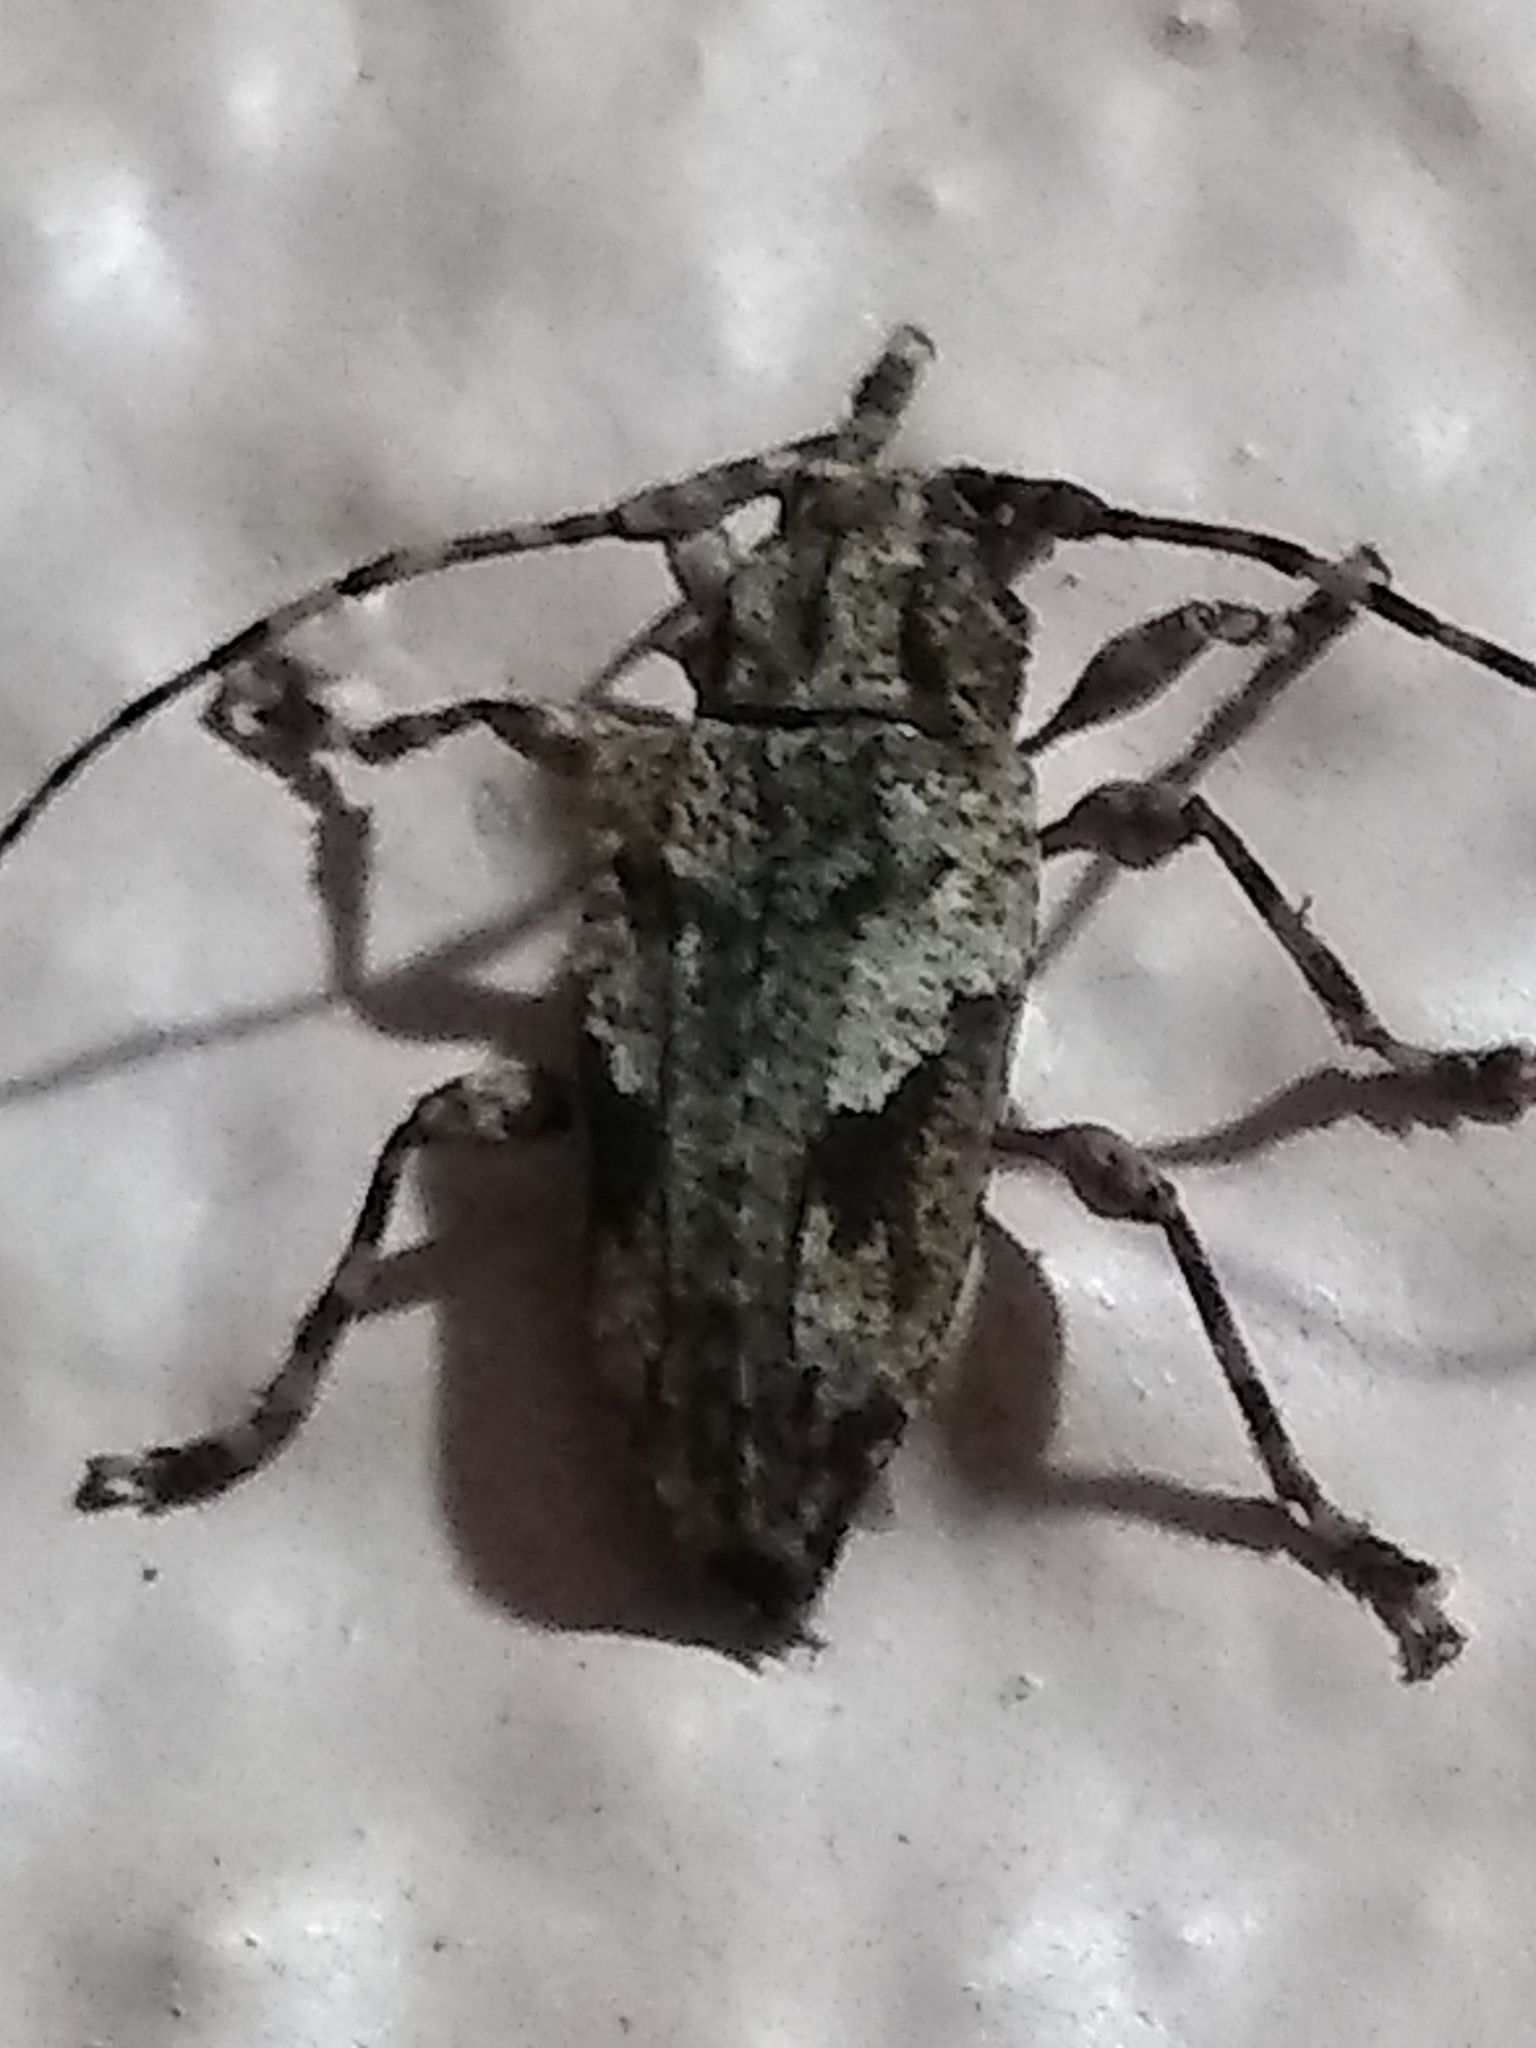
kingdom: Animalia
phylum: Arthropoda
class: Insecta
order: Coleoptera
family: Cerambycidae
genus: Psapharochrus
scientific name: Psapharochrus jaspideus
